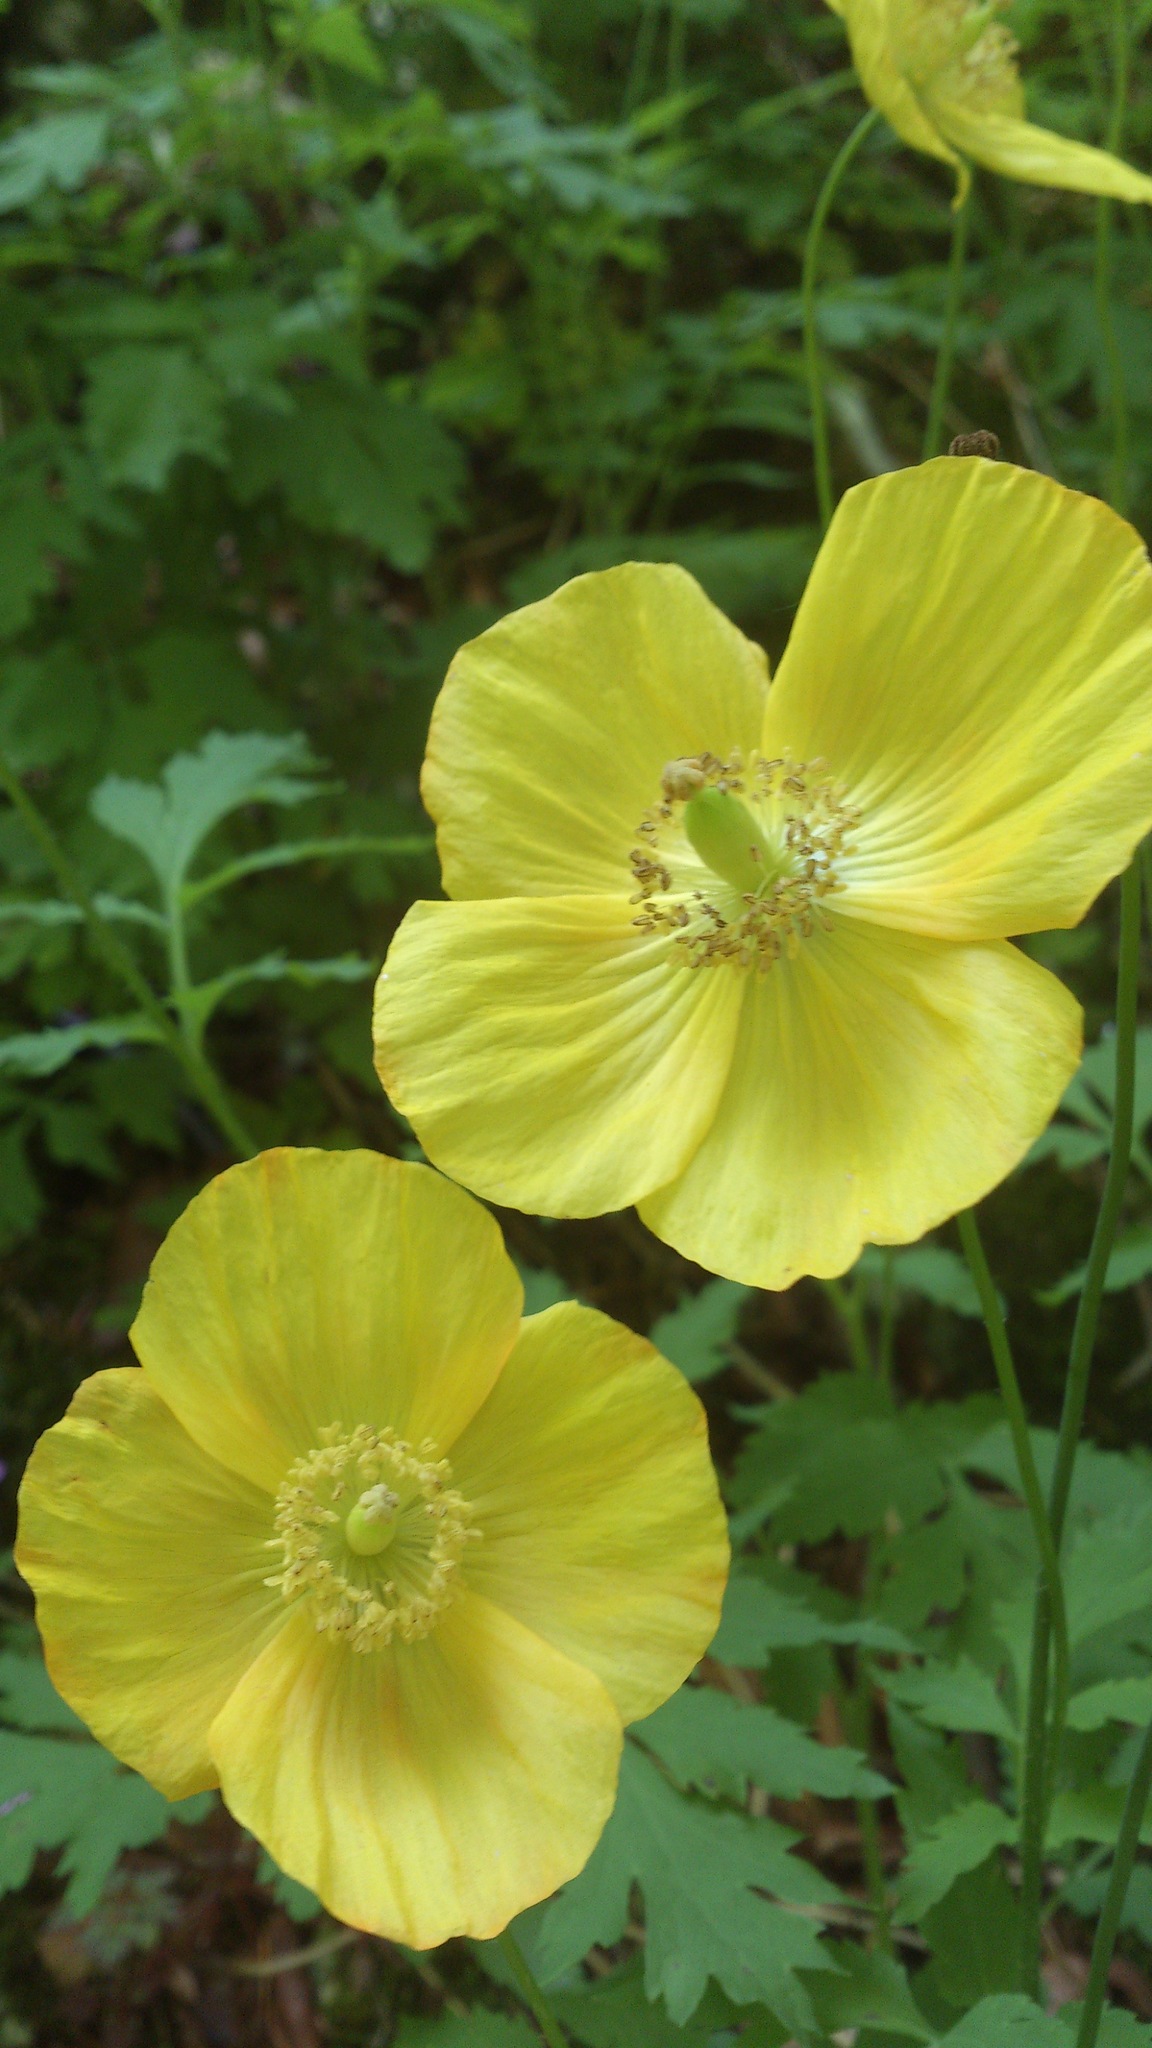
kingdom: Plantae
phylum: Tracheophyta
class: Magnoliopsida
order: Ranunculales
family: Papaveraceae
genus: Papaver
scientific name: Papaver cambricum
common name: Poppy
